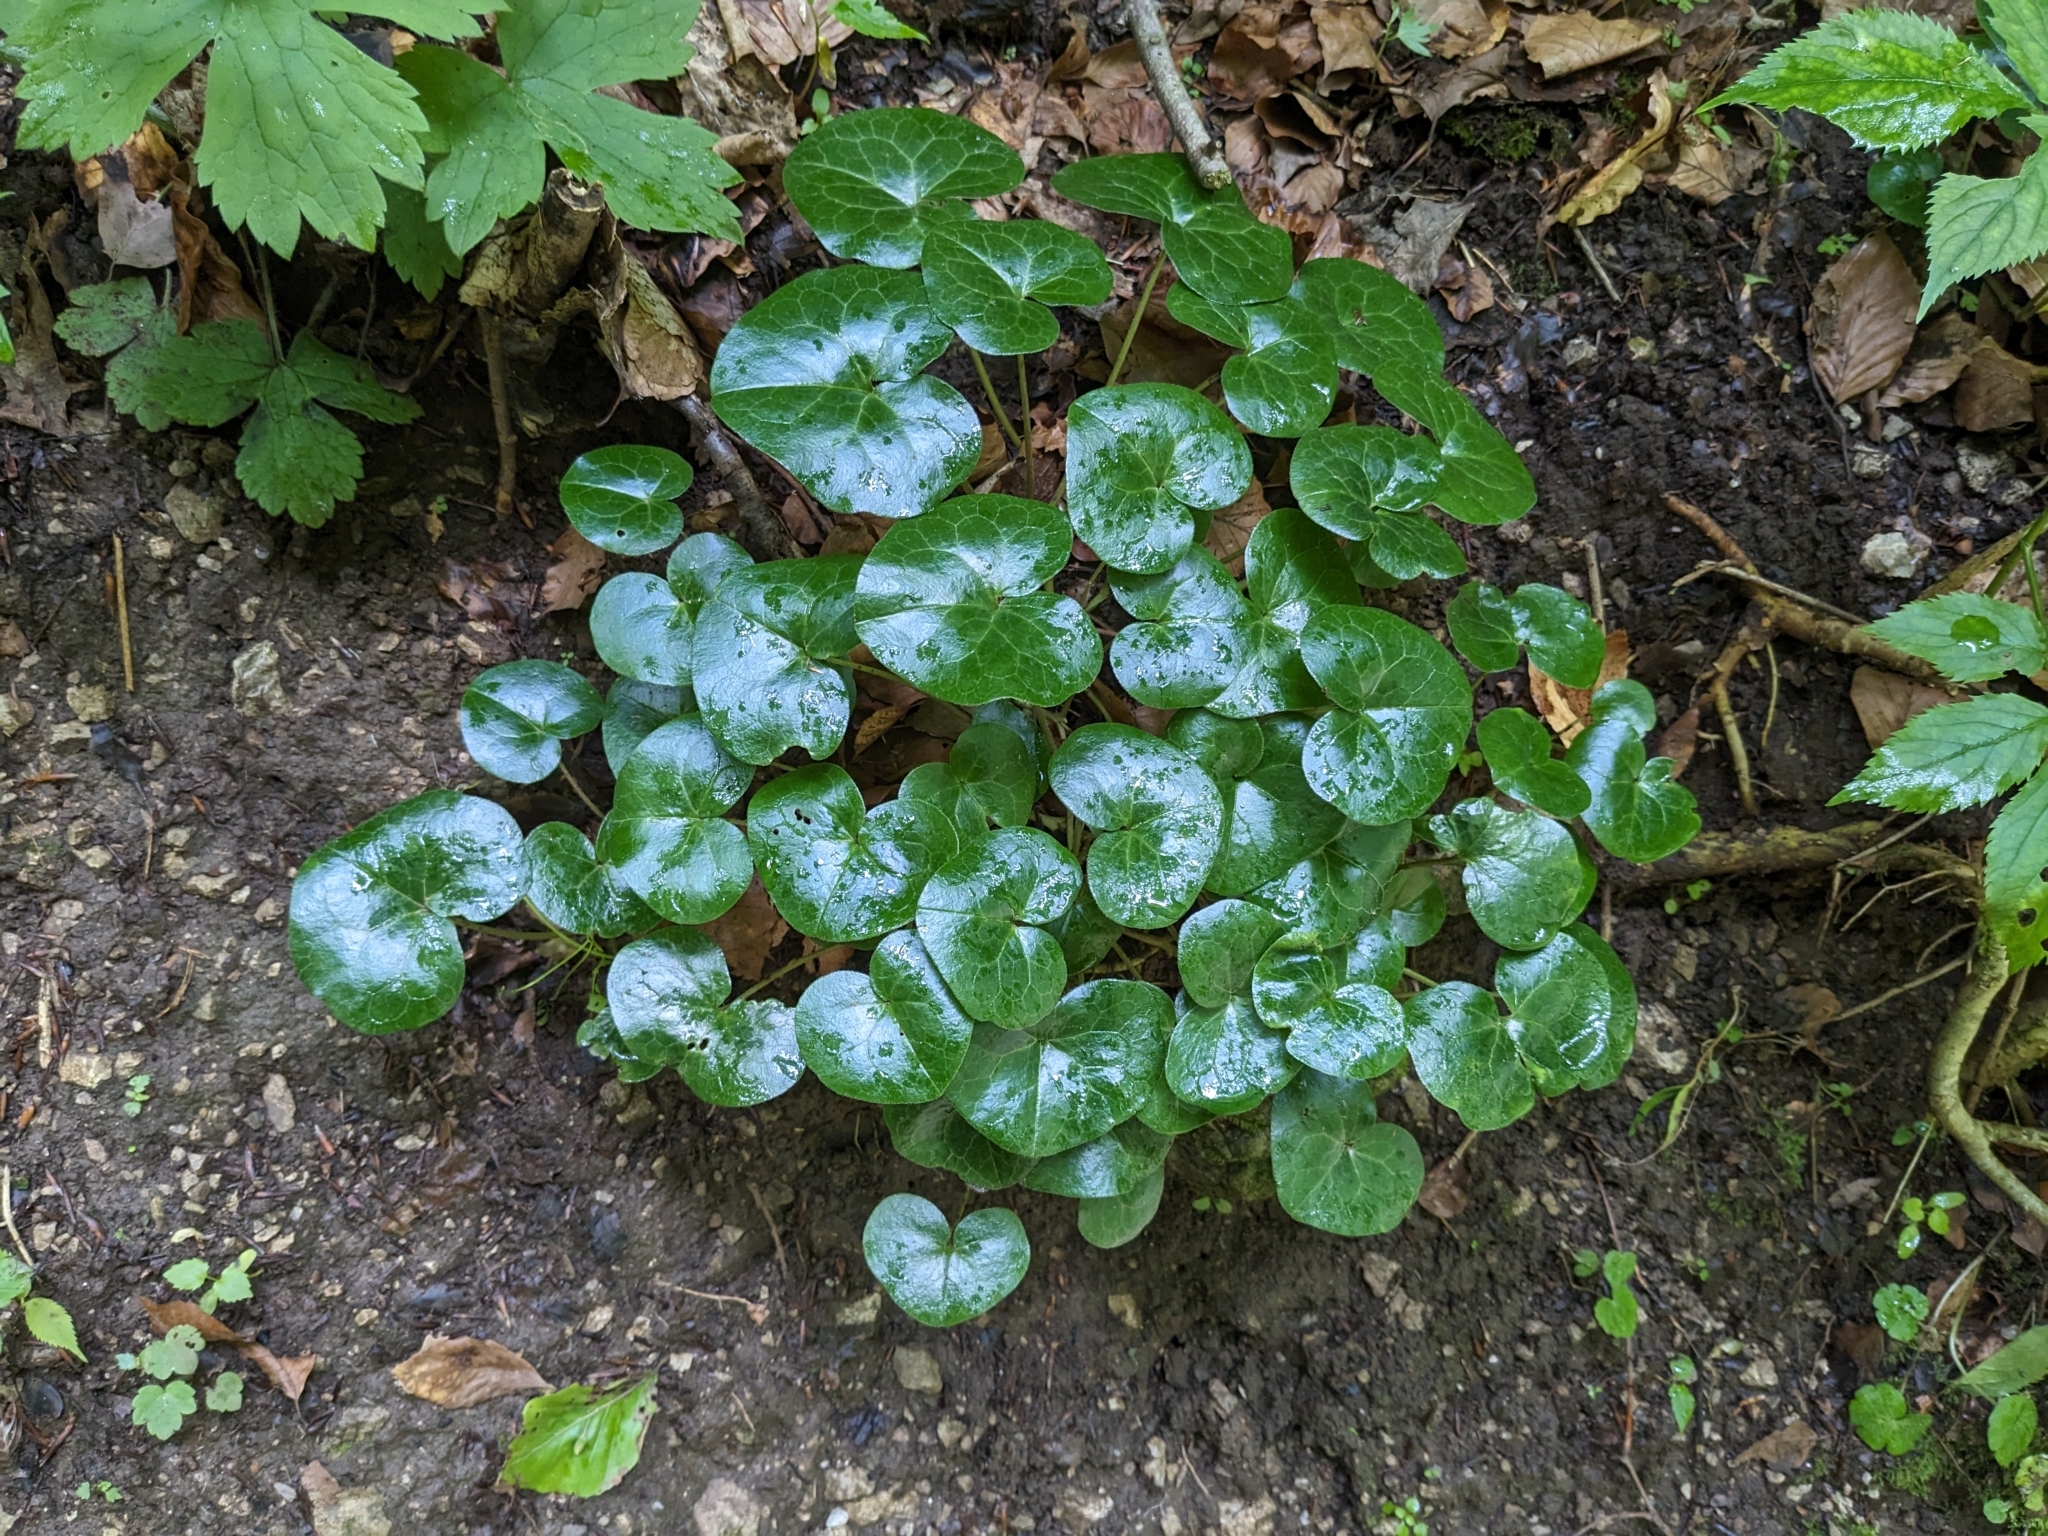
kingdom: Plantae
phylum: Tracheophyta
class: Magnoliopsida
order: Piperales
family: Aristolochiaceae
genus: Asarum
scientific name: Asarum europaeum
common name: Asarabacca
